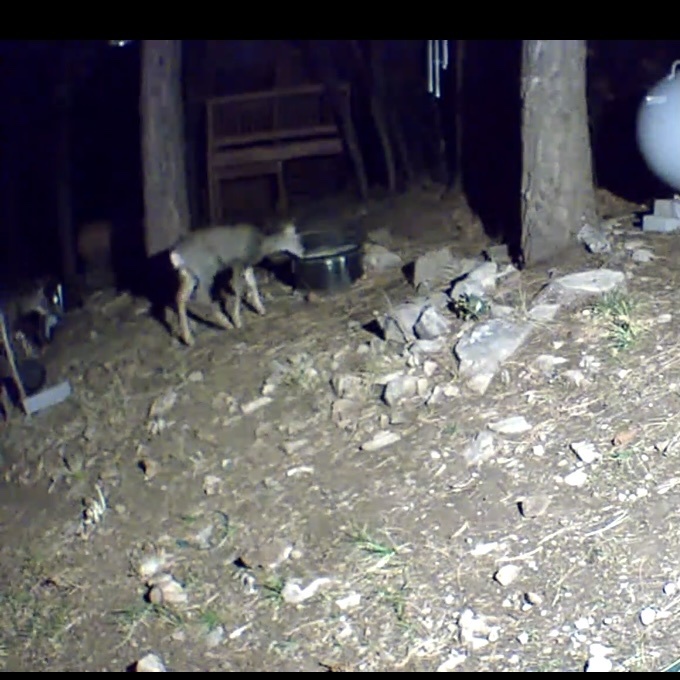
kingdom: Animalia
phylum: Chordata
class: Mammalia
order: Artiodactyla
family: Cervidae
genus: Odocoileus
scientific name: Odocoileus hemionus
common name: Mule deer
